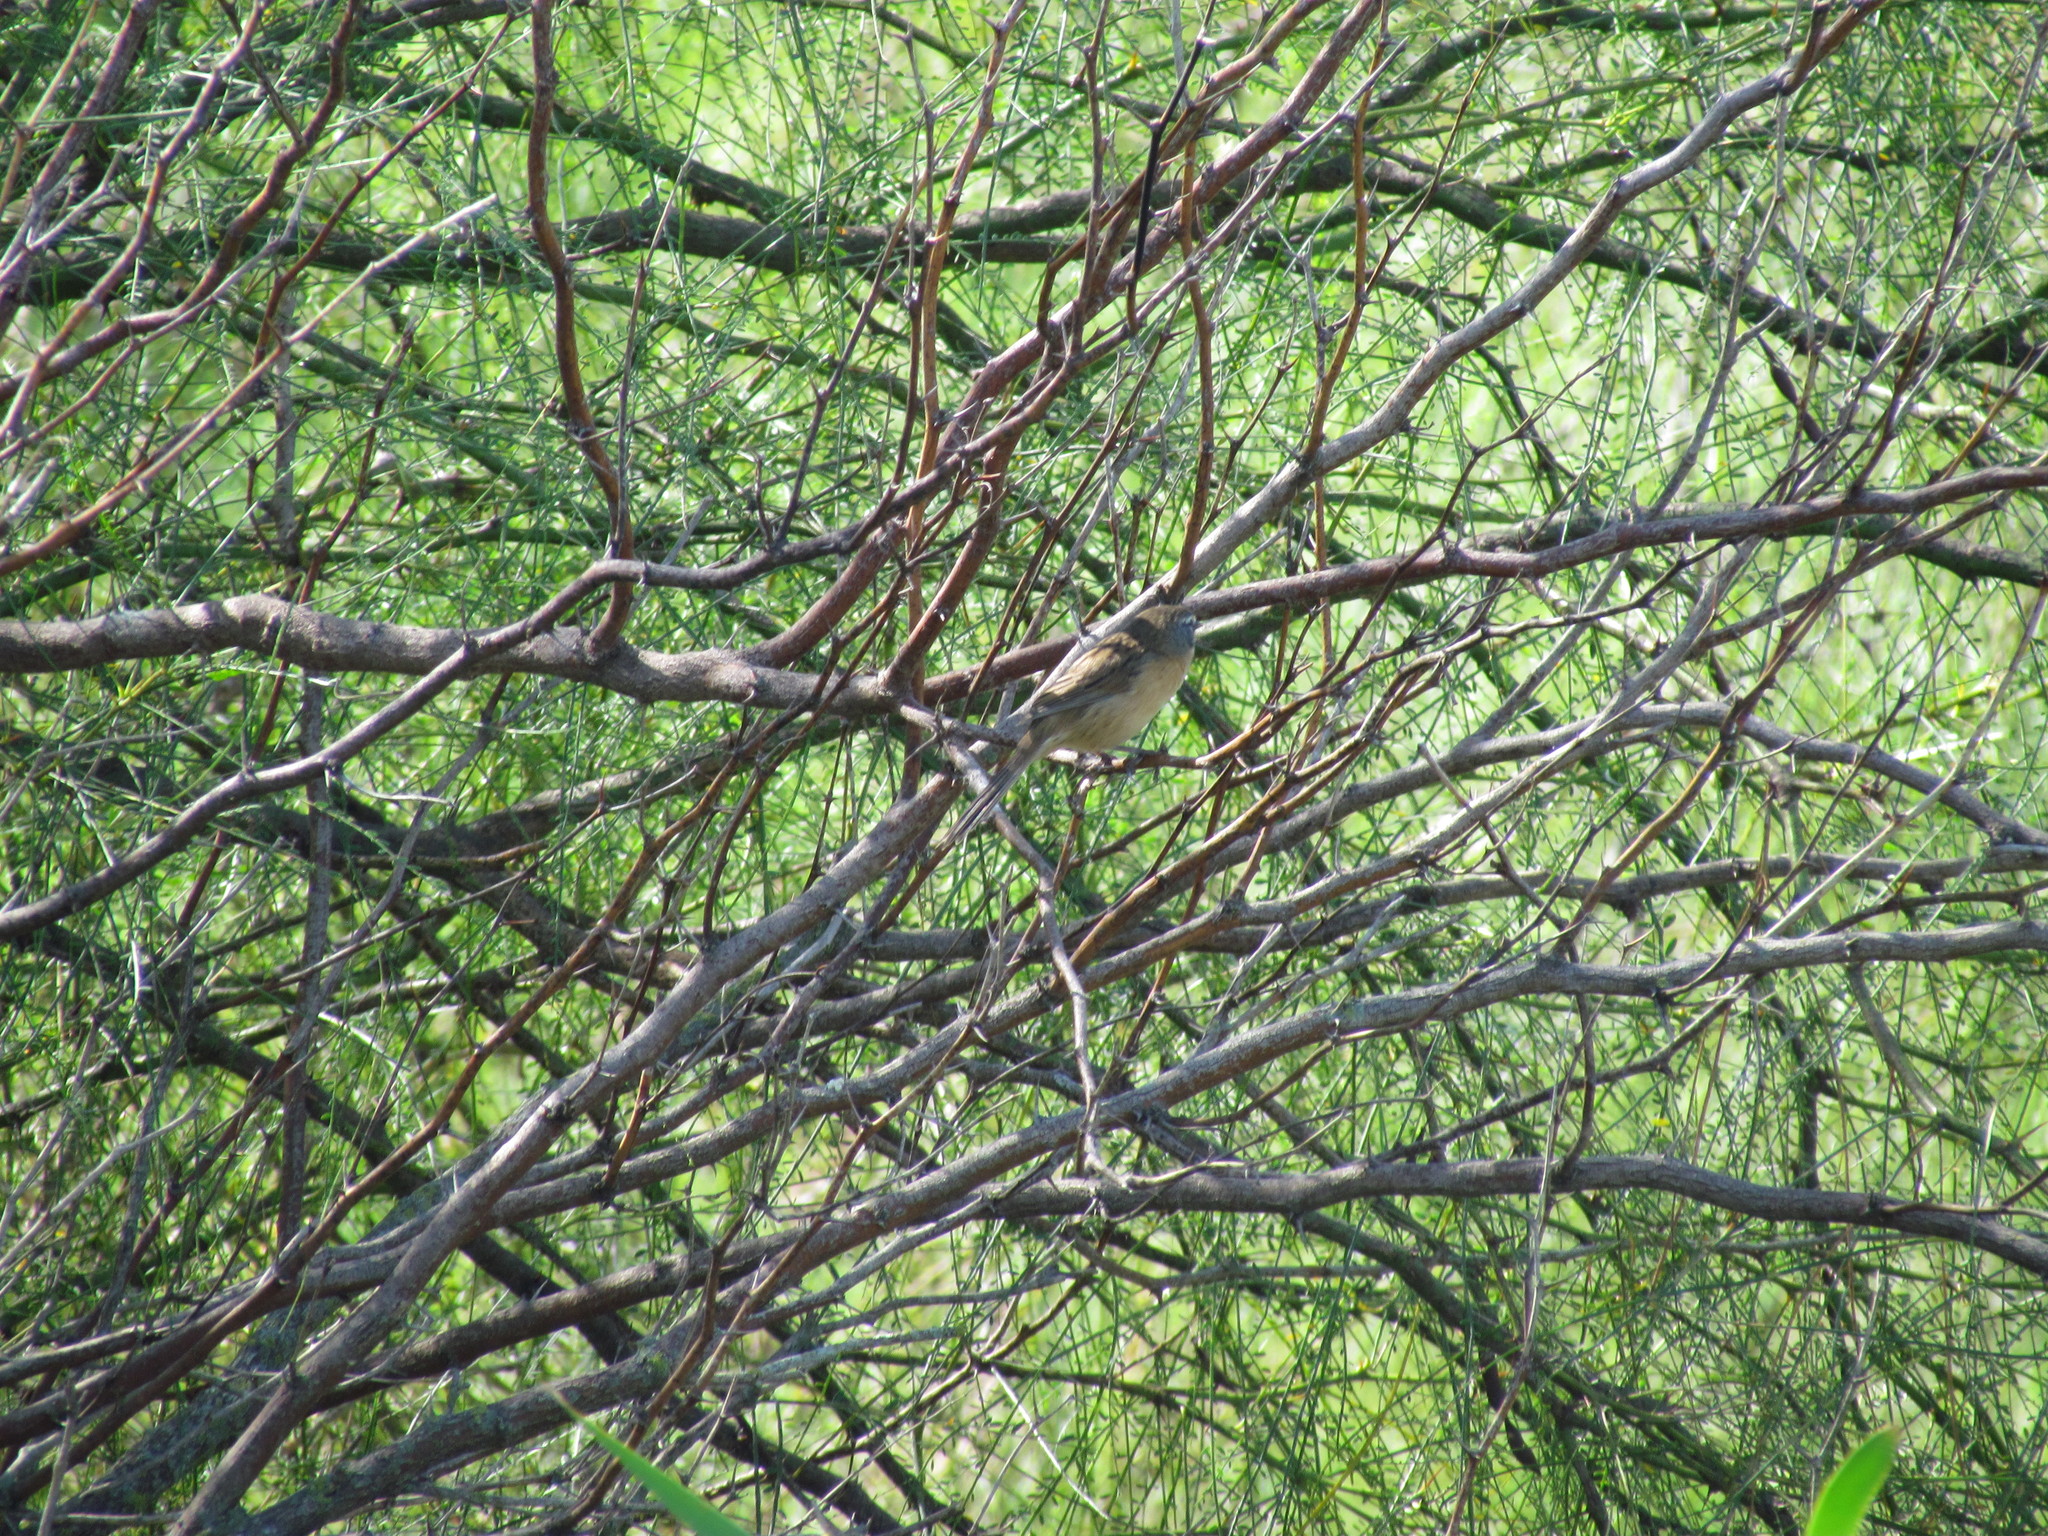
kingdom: Animalia
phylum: Chordata
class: Aves
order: Passeriformes
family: Thraupidae
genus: Donacospiza
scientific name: Donacospiza albifrons
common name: Long-tailed reed finch
